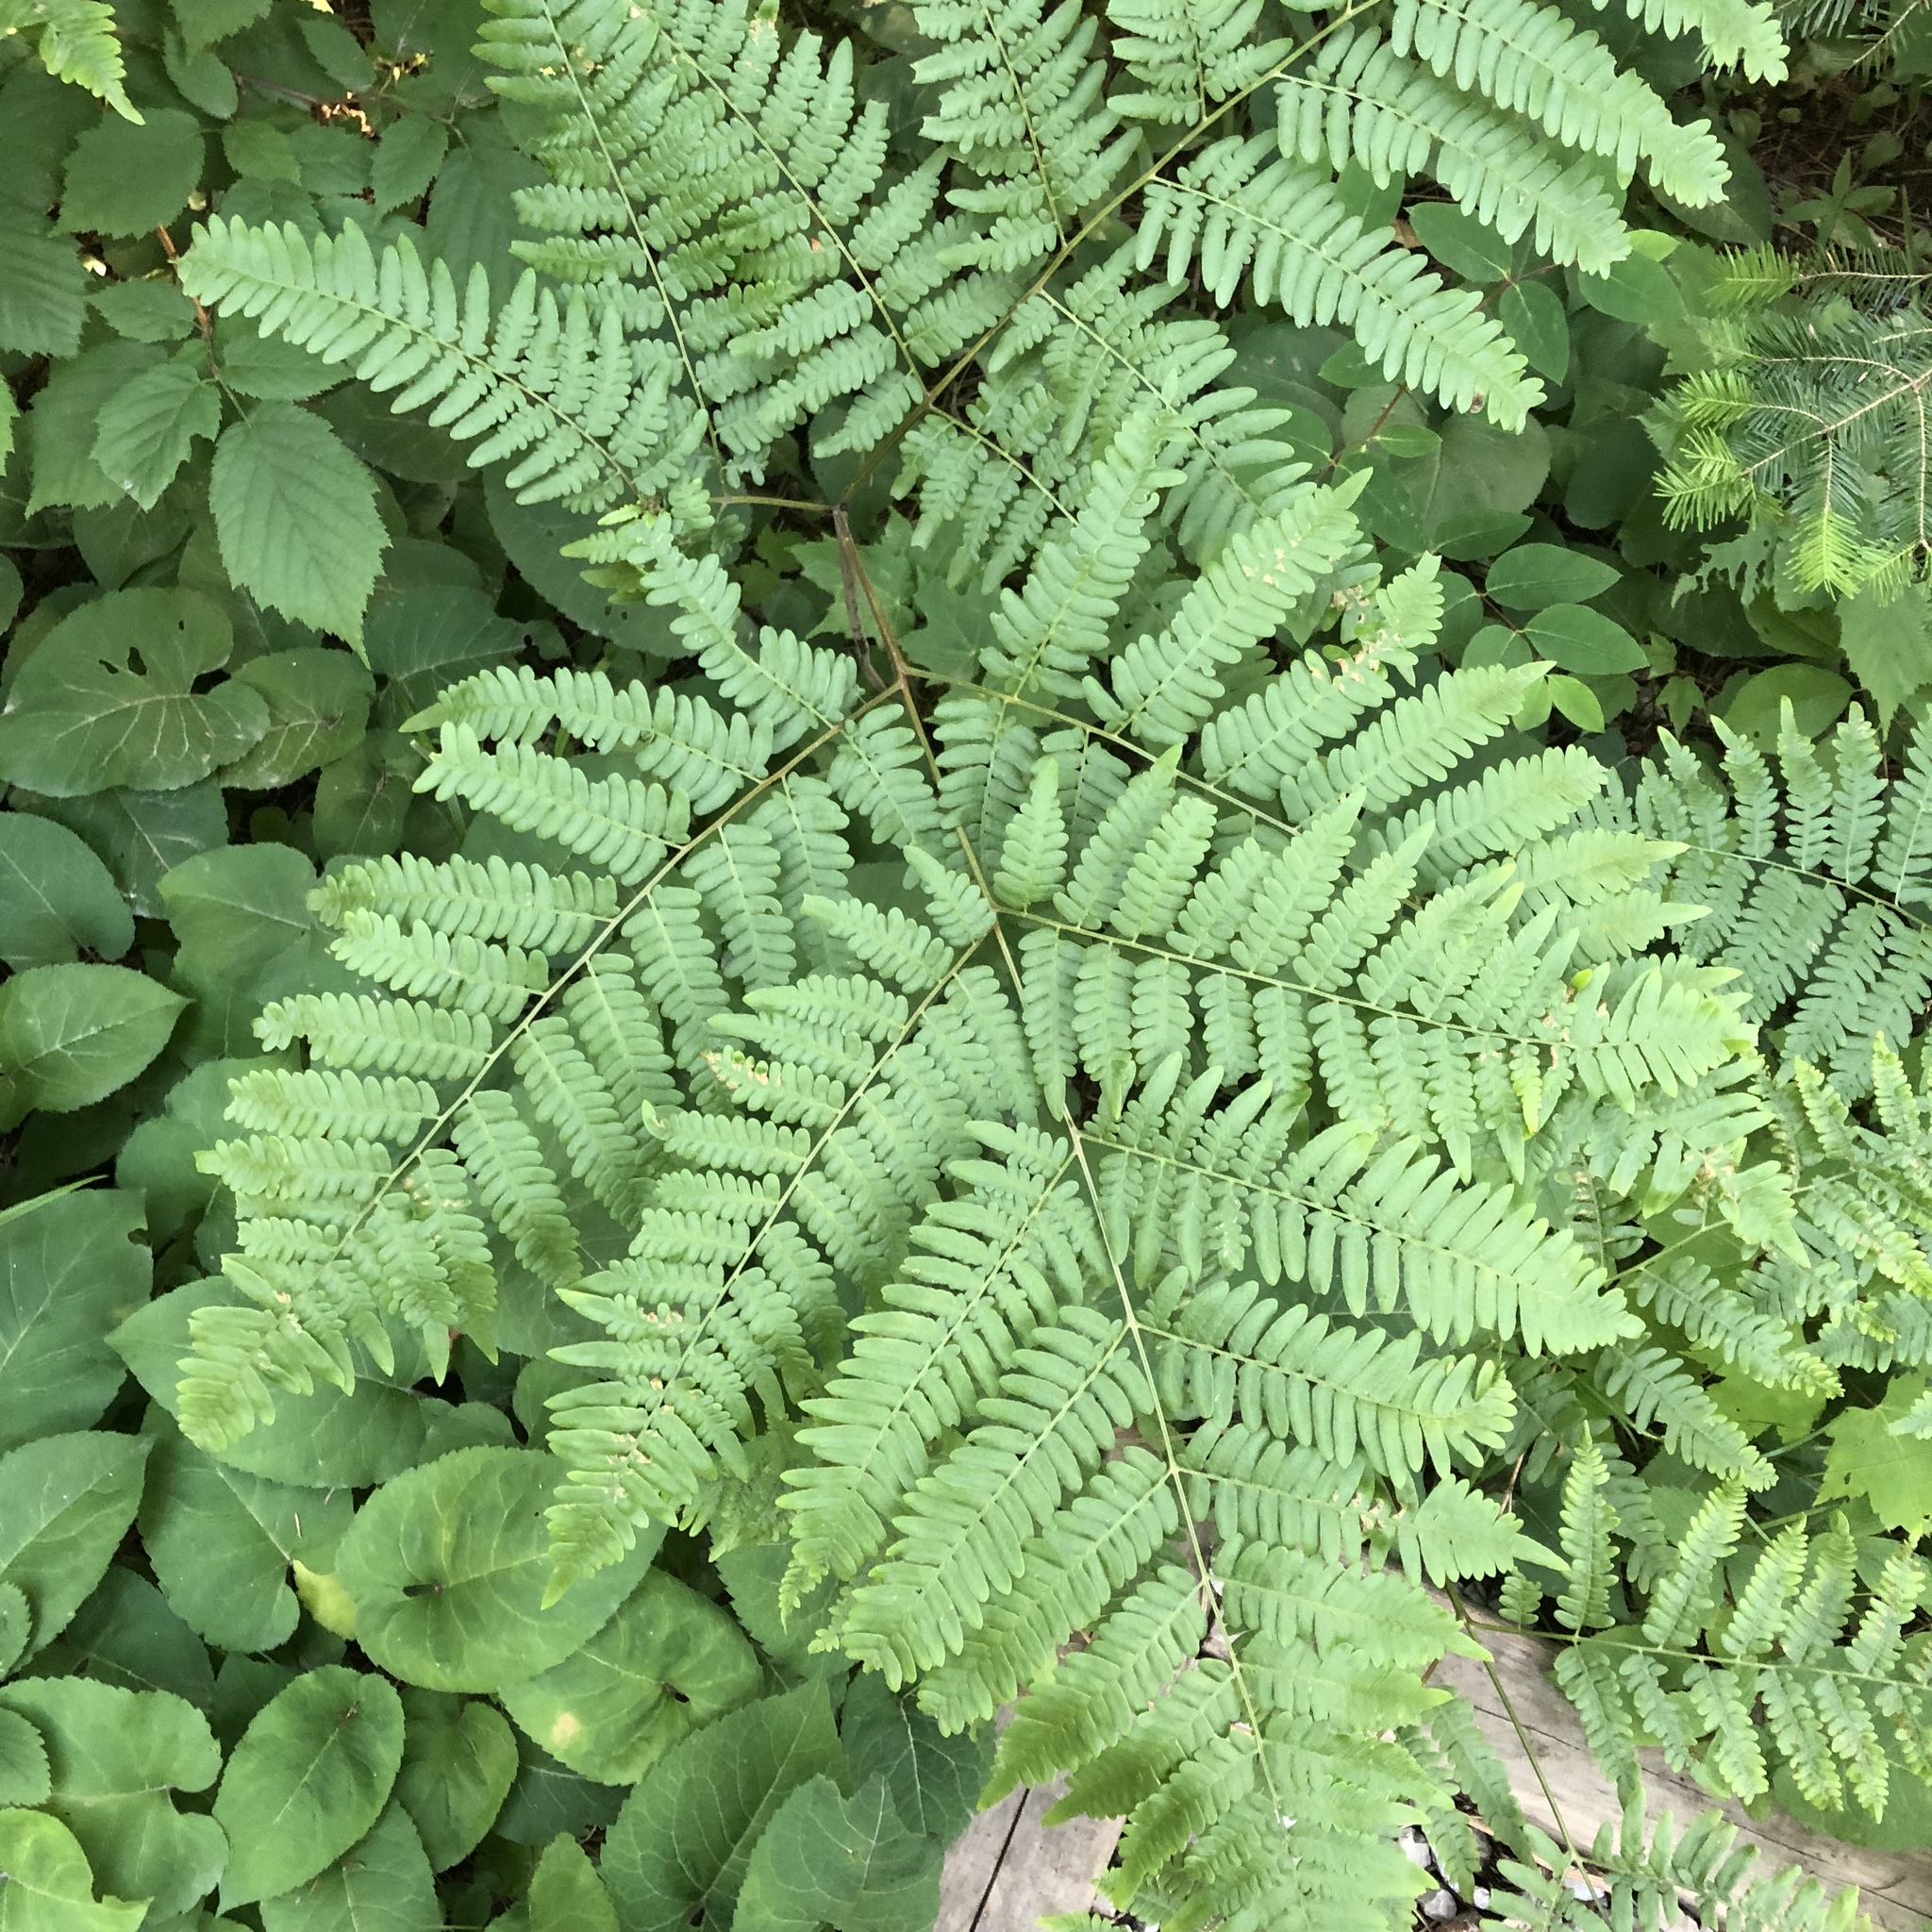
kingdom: Plantae
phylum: Tracheophyta
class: Polypodiopsida
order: Polypodiales
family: Dennstaedtiaceae
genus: Pteridium
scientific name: Pteridium aquilinum
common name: Bracken
